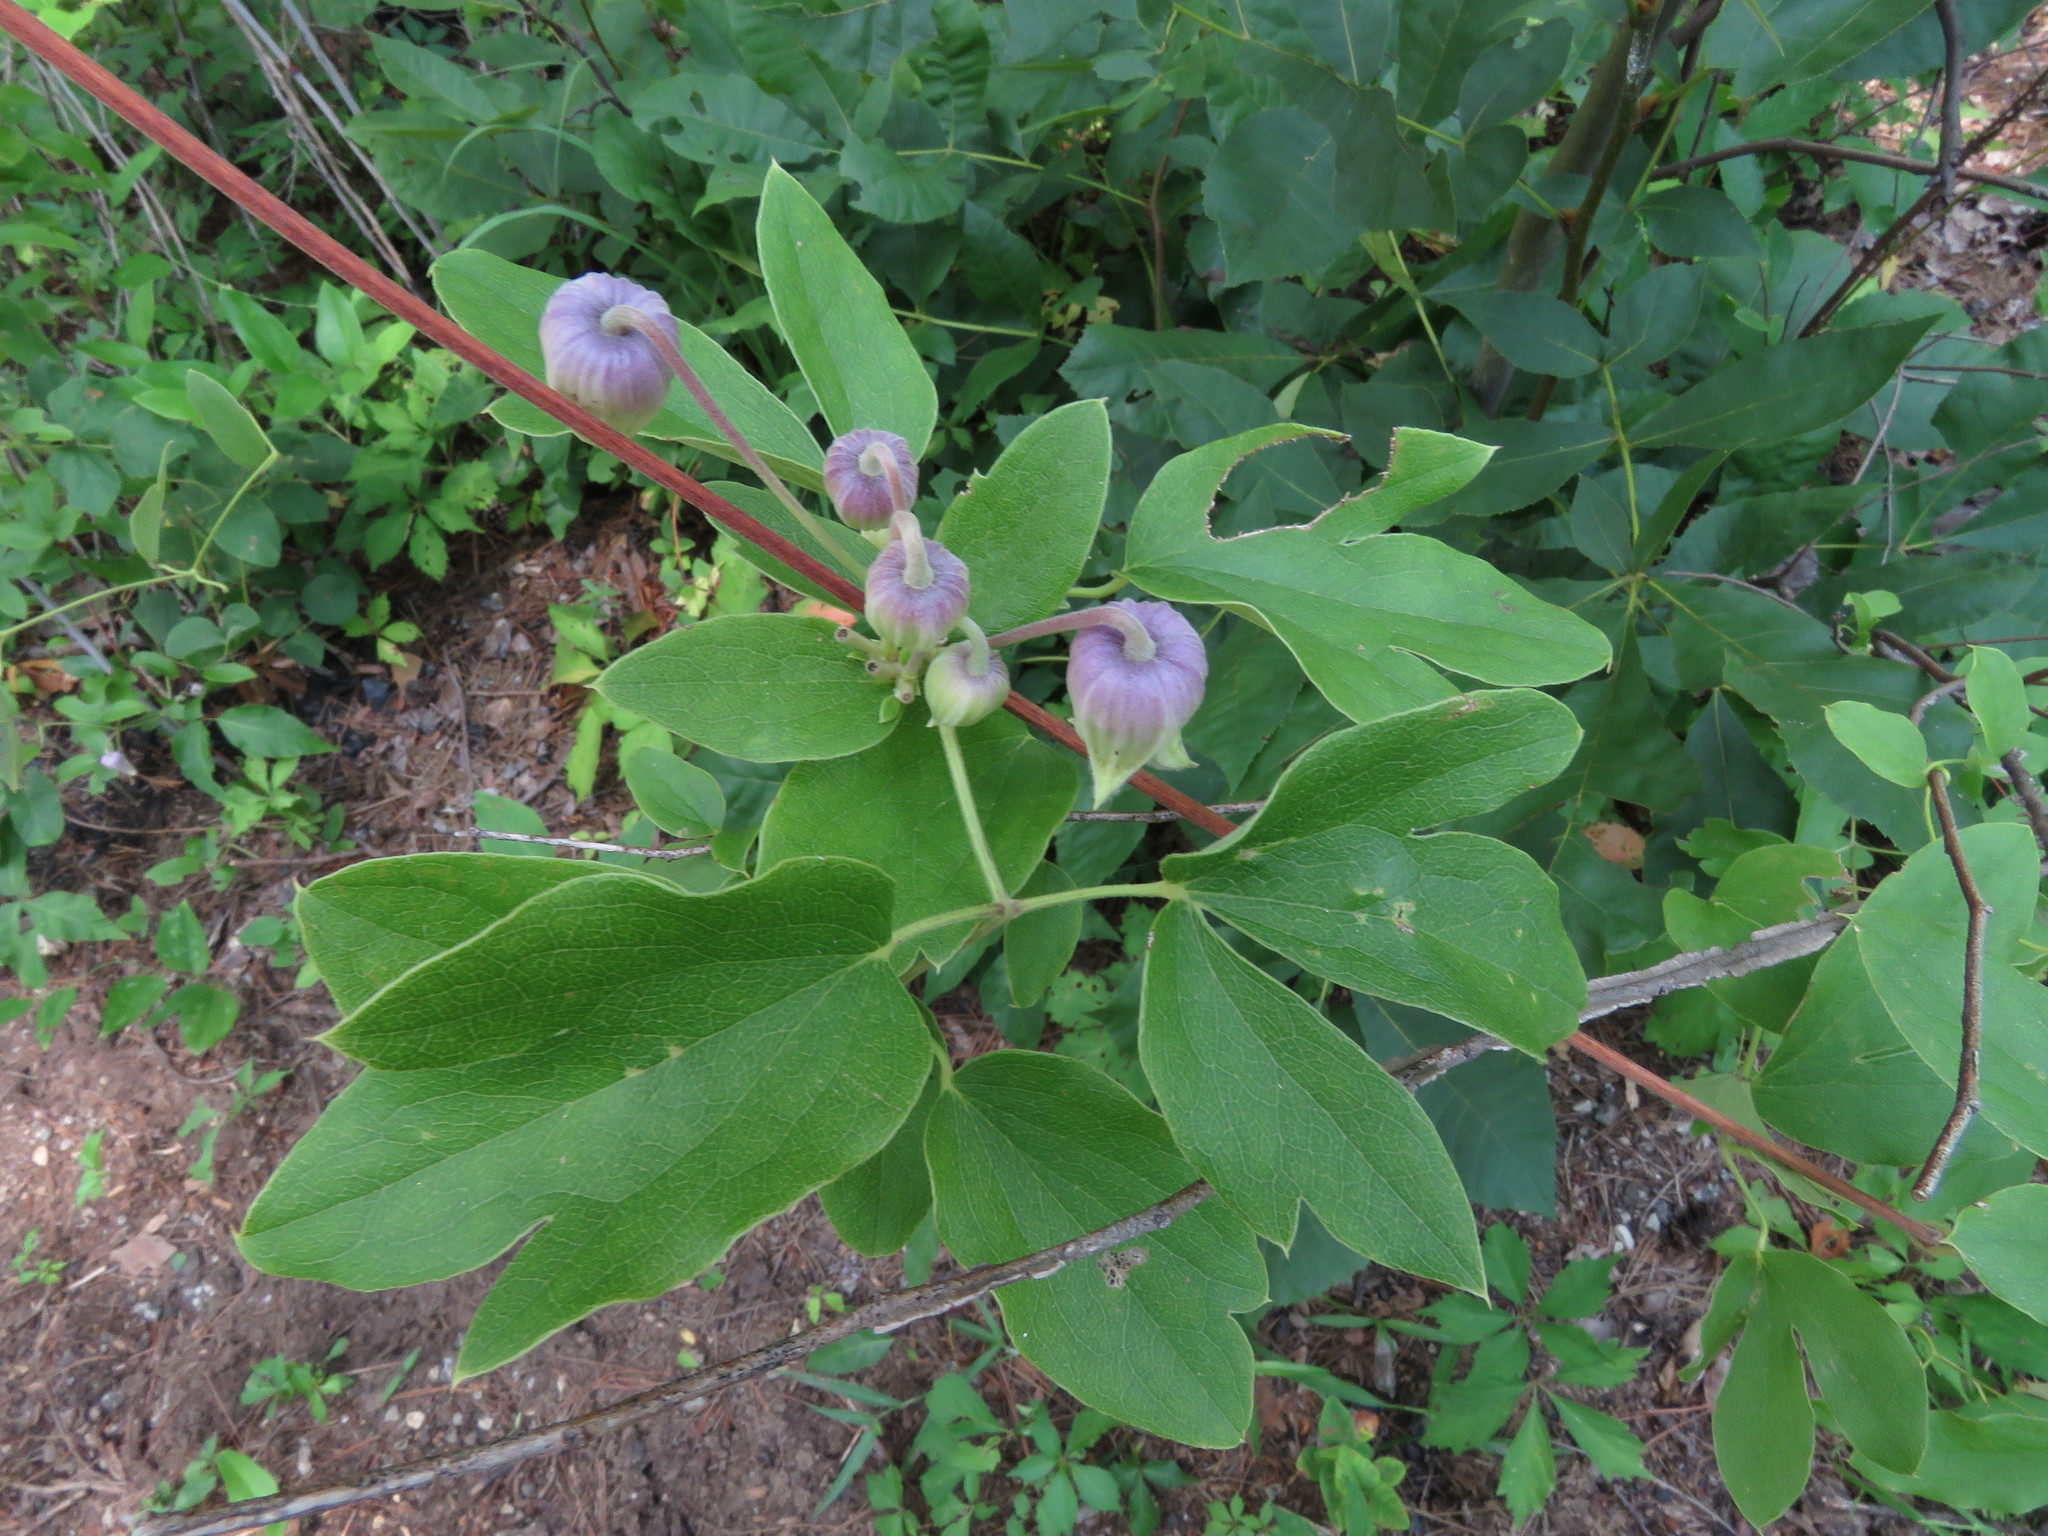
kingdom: Plantae
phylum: Tracheophyta
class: Magnoliopsida
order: Ranunculales
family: Ranunculaceae
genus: Clematis
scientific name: Clematis reticulata
